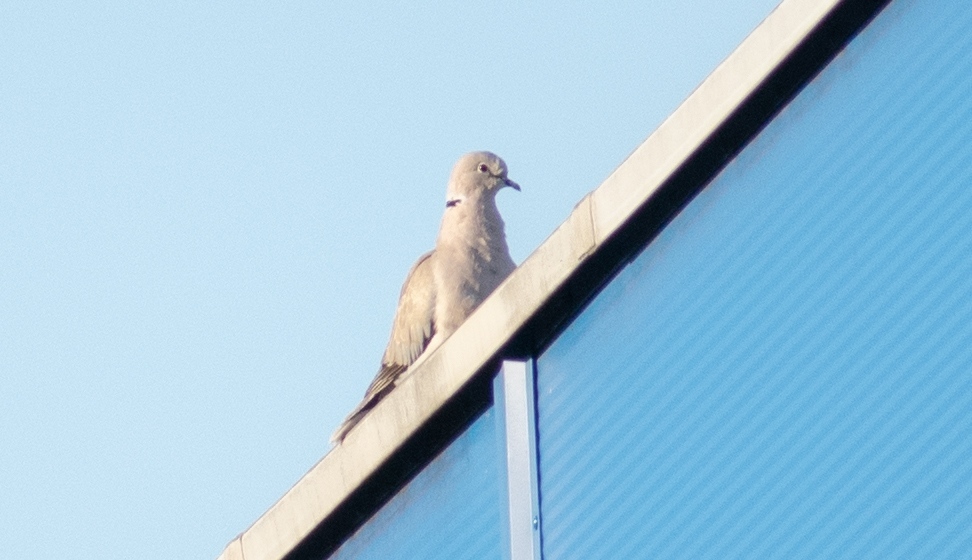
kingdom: Animalia
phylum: Chordata
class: Aves
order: Columbiformes
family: Columbidae
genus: Streptopelia
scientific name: Streptopelia decaocto
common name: Eurasian collared dove
